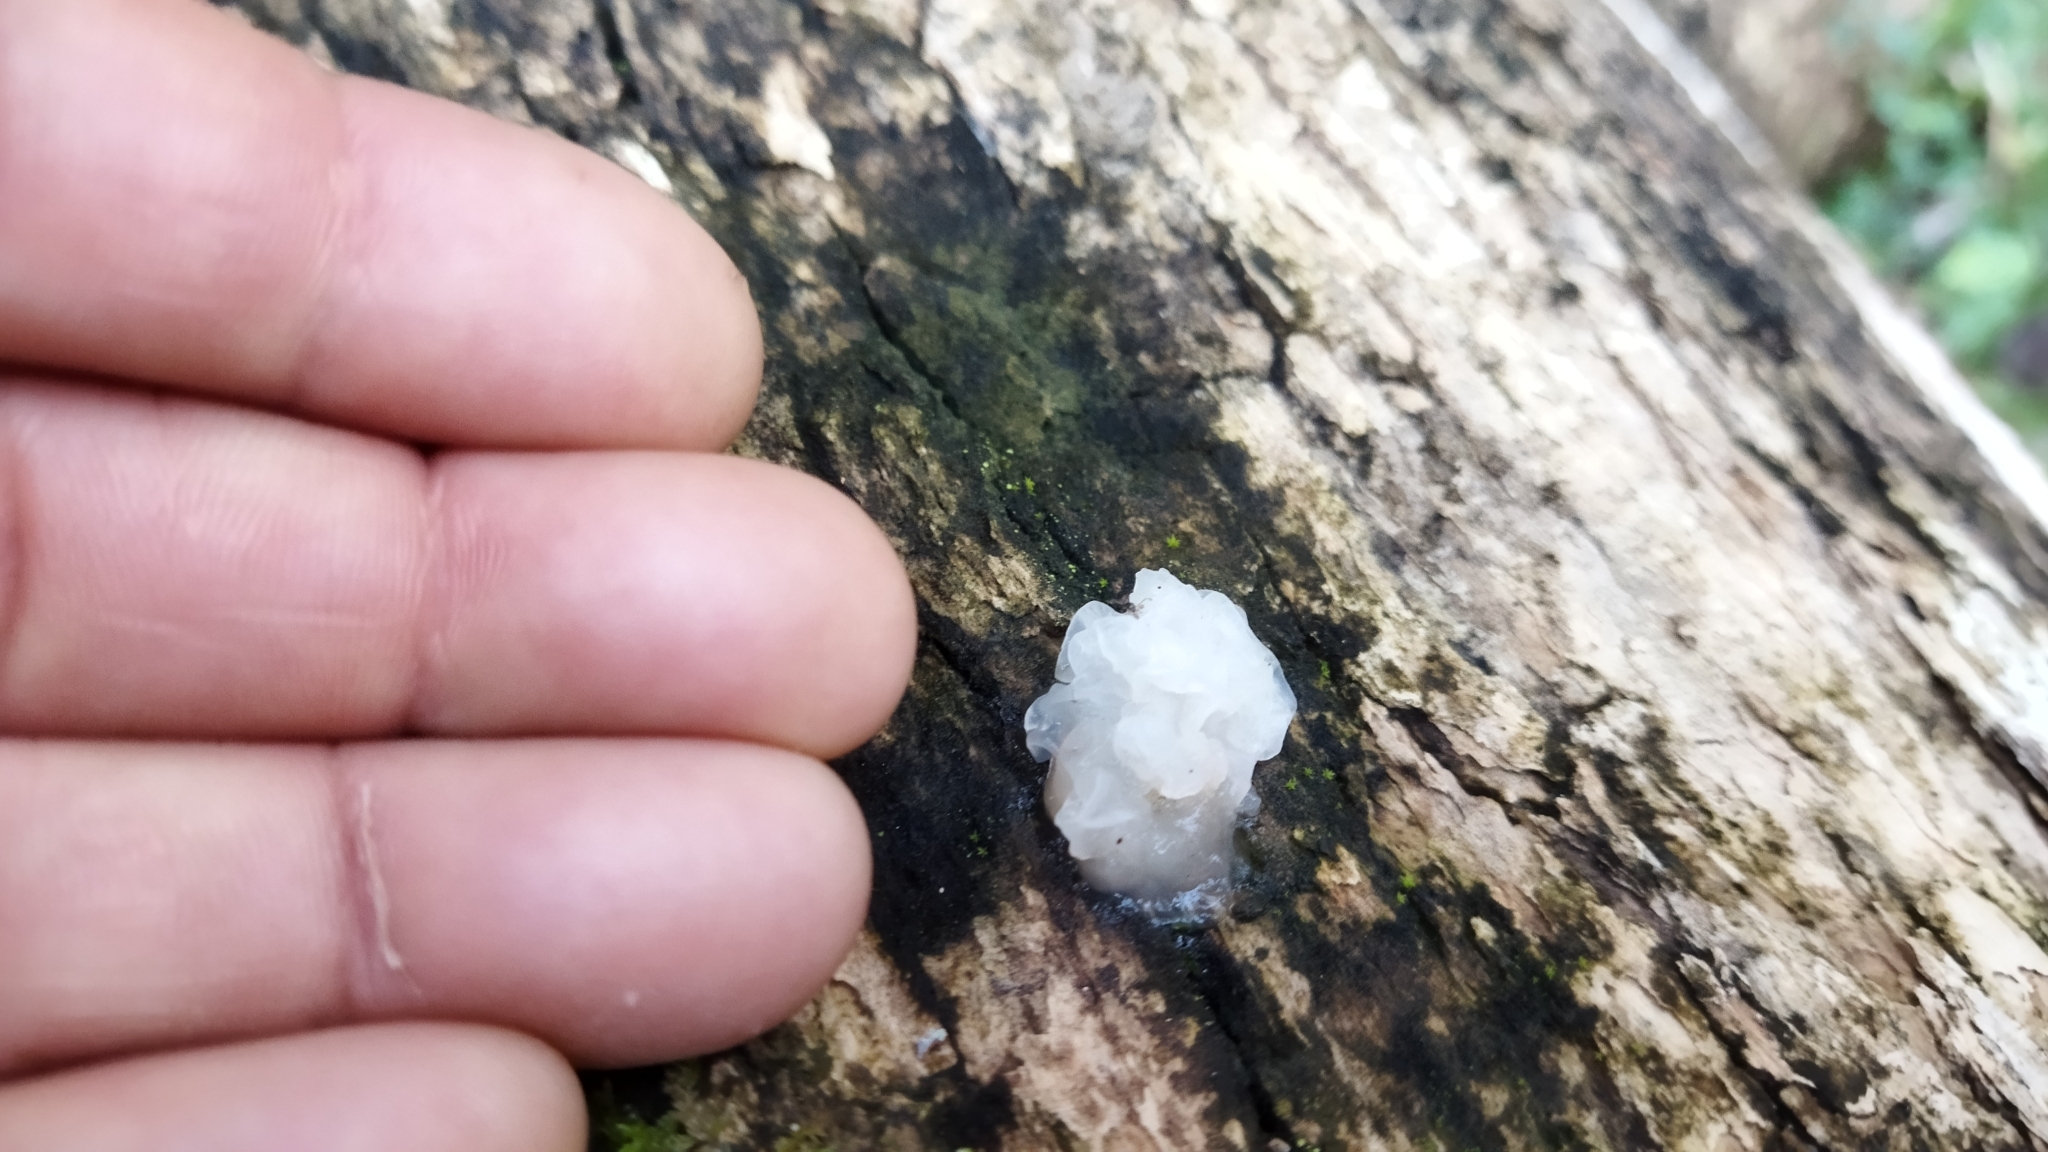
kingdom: Fungi
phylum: Basidiomycota
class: Tremellomycetes
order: Tremellales
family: Tremellaceae
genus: Tremella
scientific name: Tremella fuciformis
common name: Snow fungus
